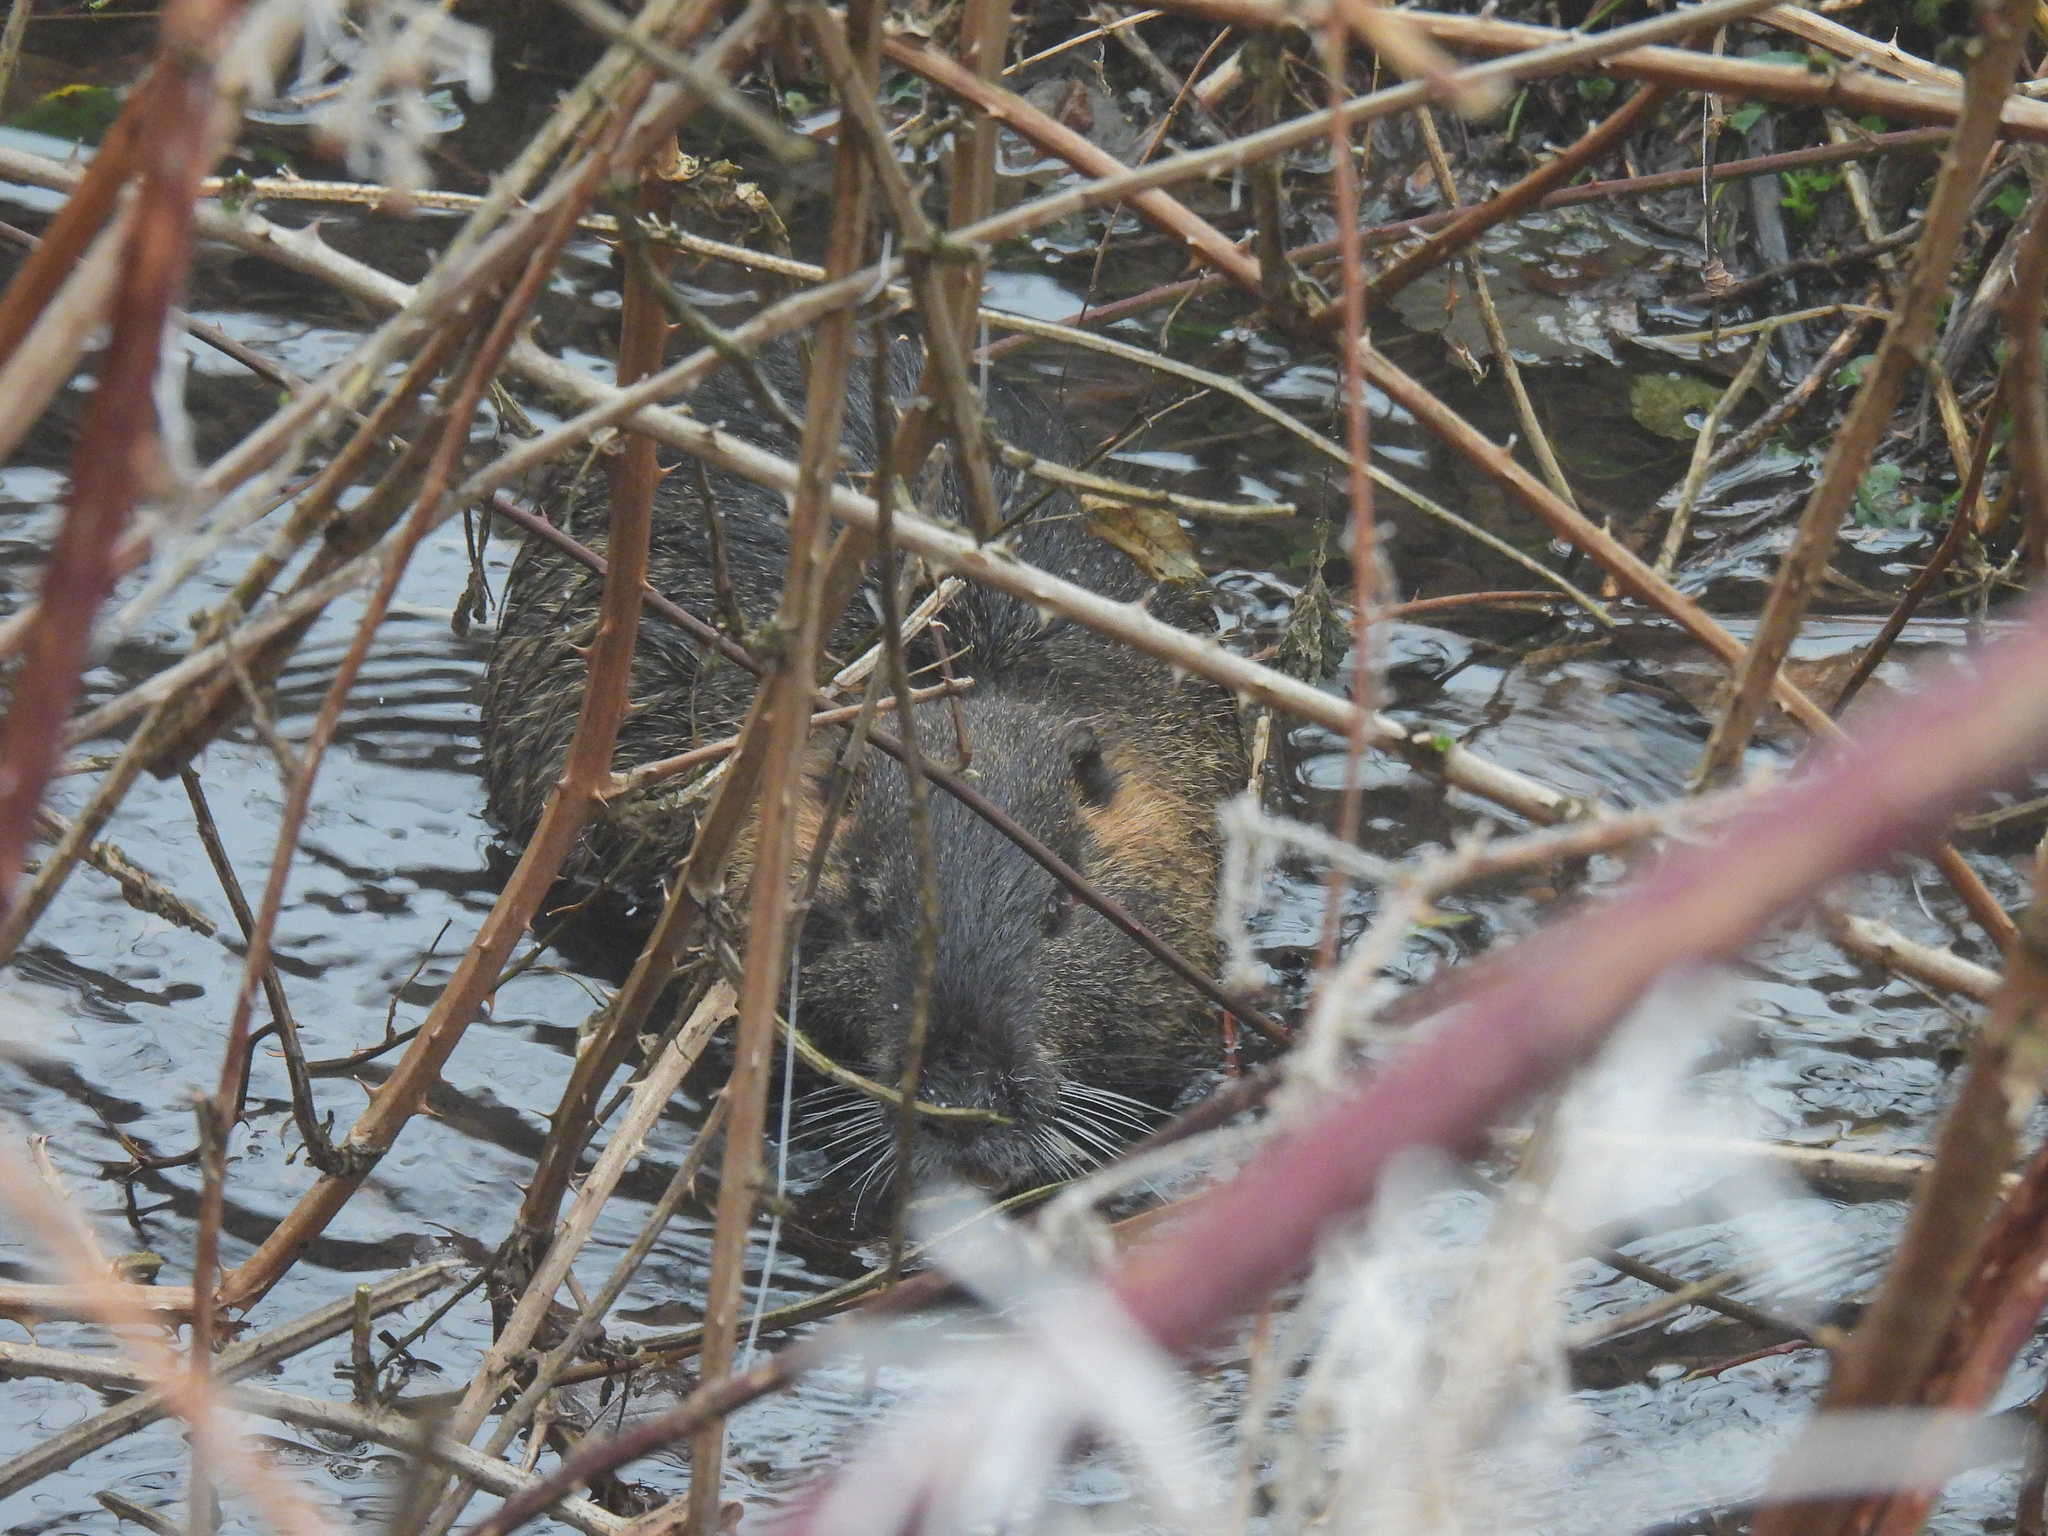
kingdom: Animalia
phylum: Chordata
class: Mammalia
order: Rodentia
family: Myocastoridae
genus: Myocastor
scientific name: Myocastor coypus
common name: Coypu
